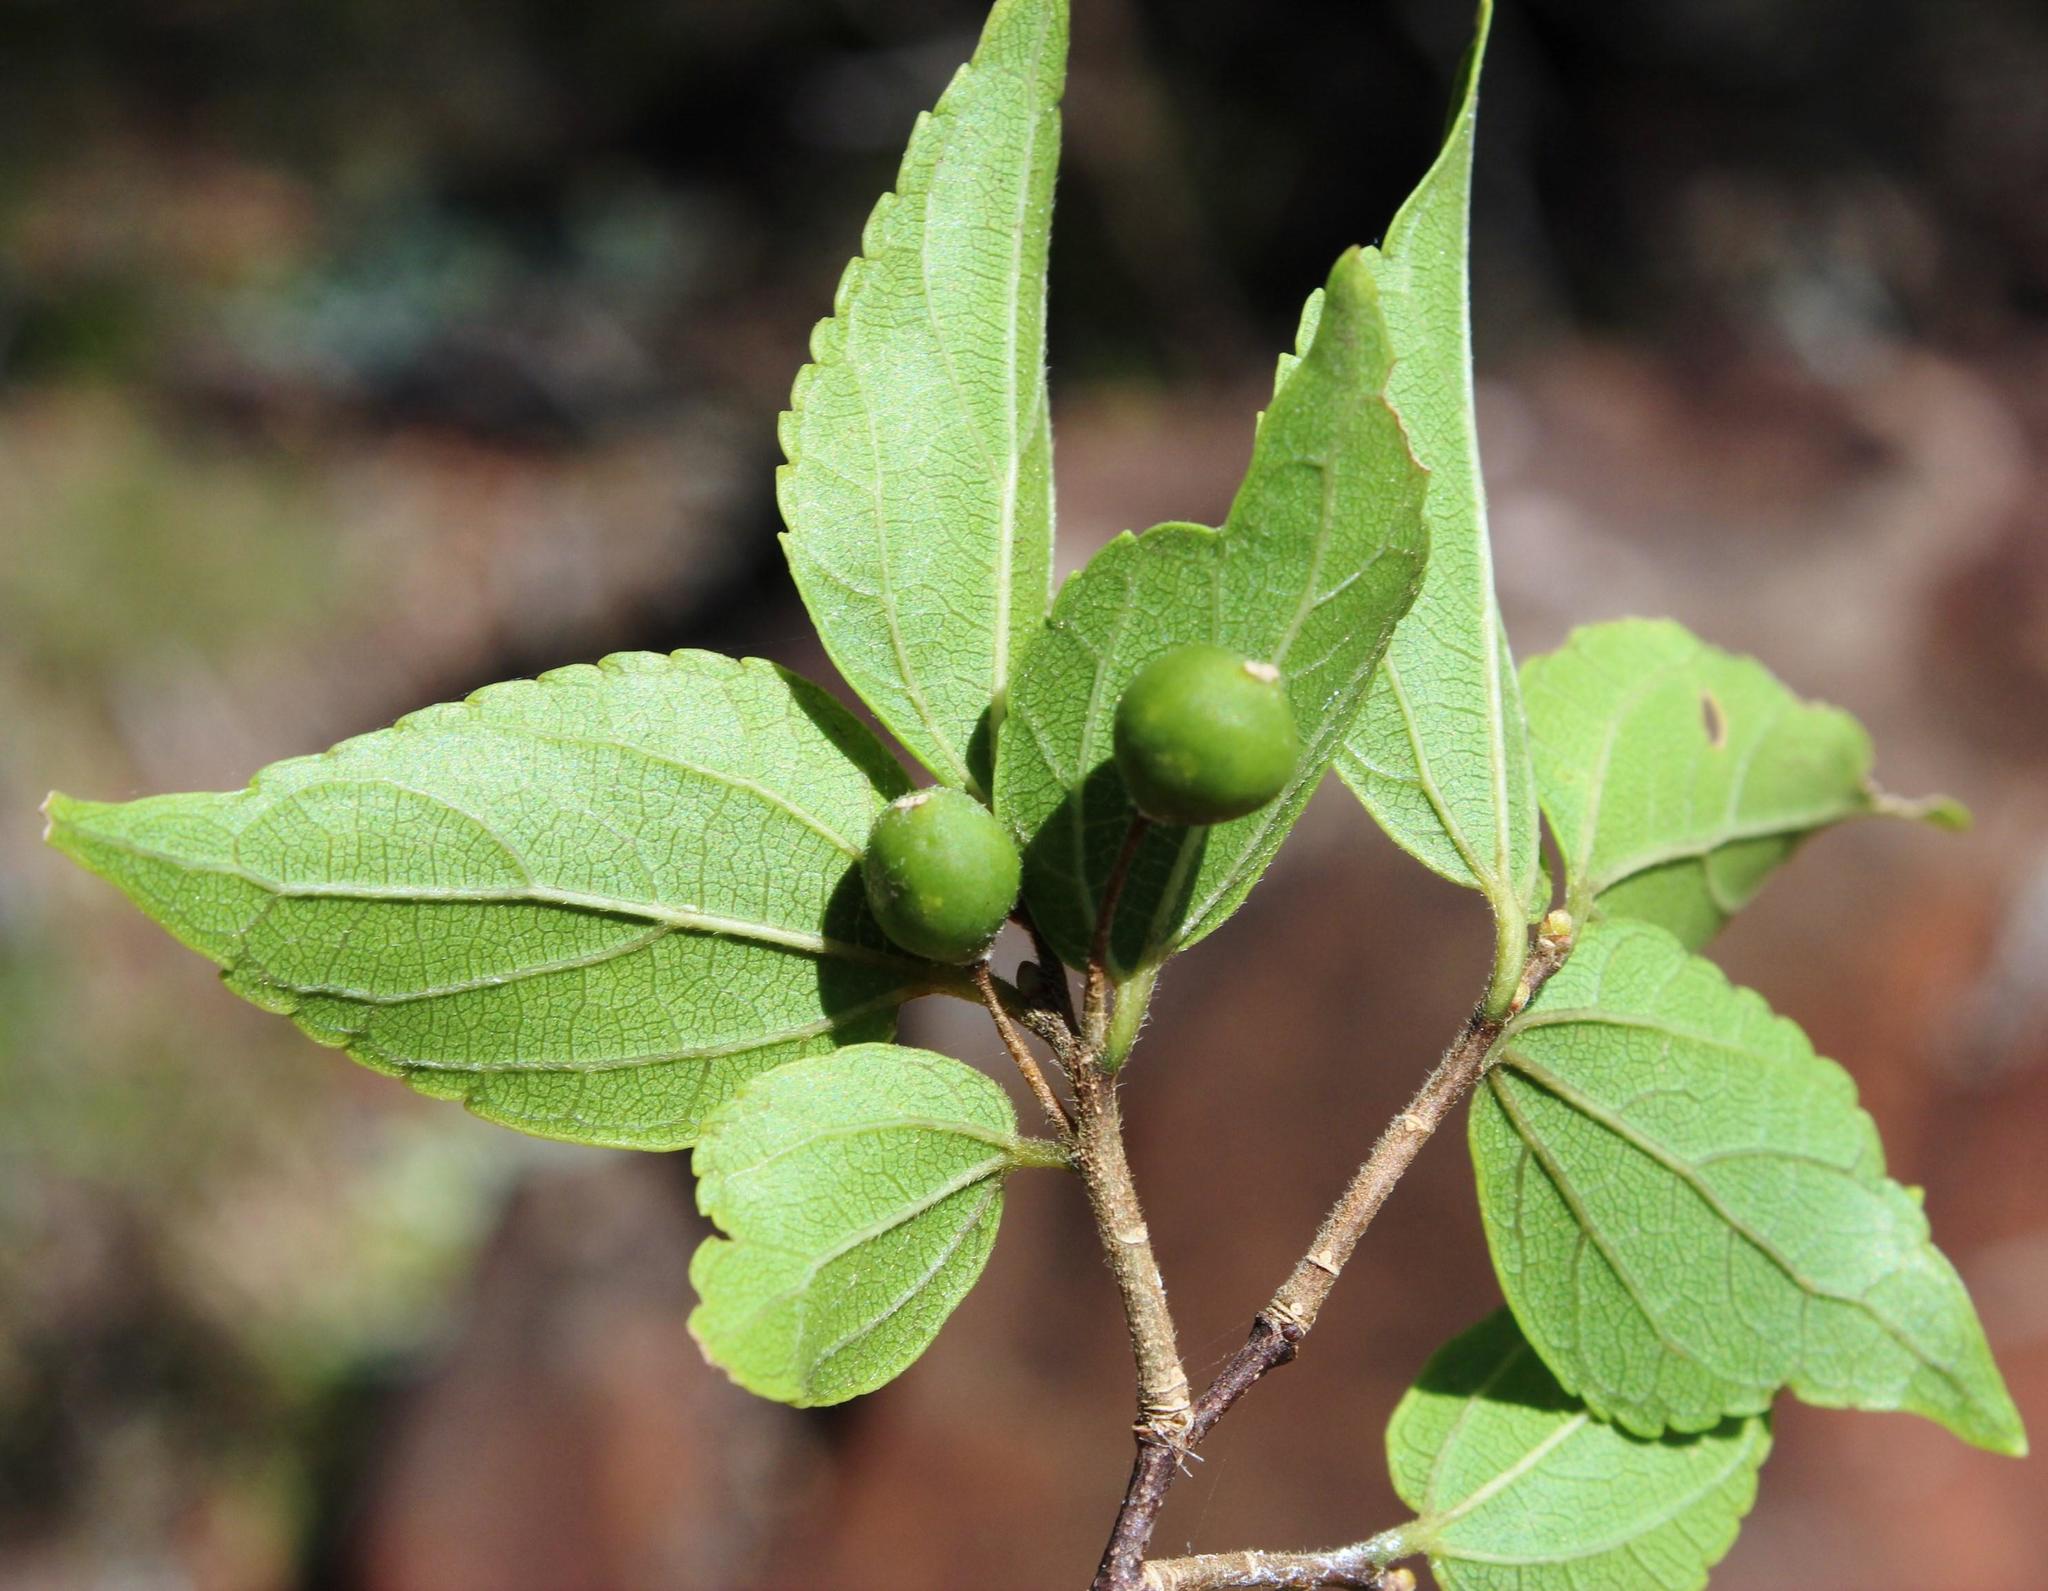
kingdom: Plantae
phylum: Tracheophyta
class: Magnoliopsida
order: Rosales
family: Cannabaceae
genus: Celtis
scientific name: Celtis africana
